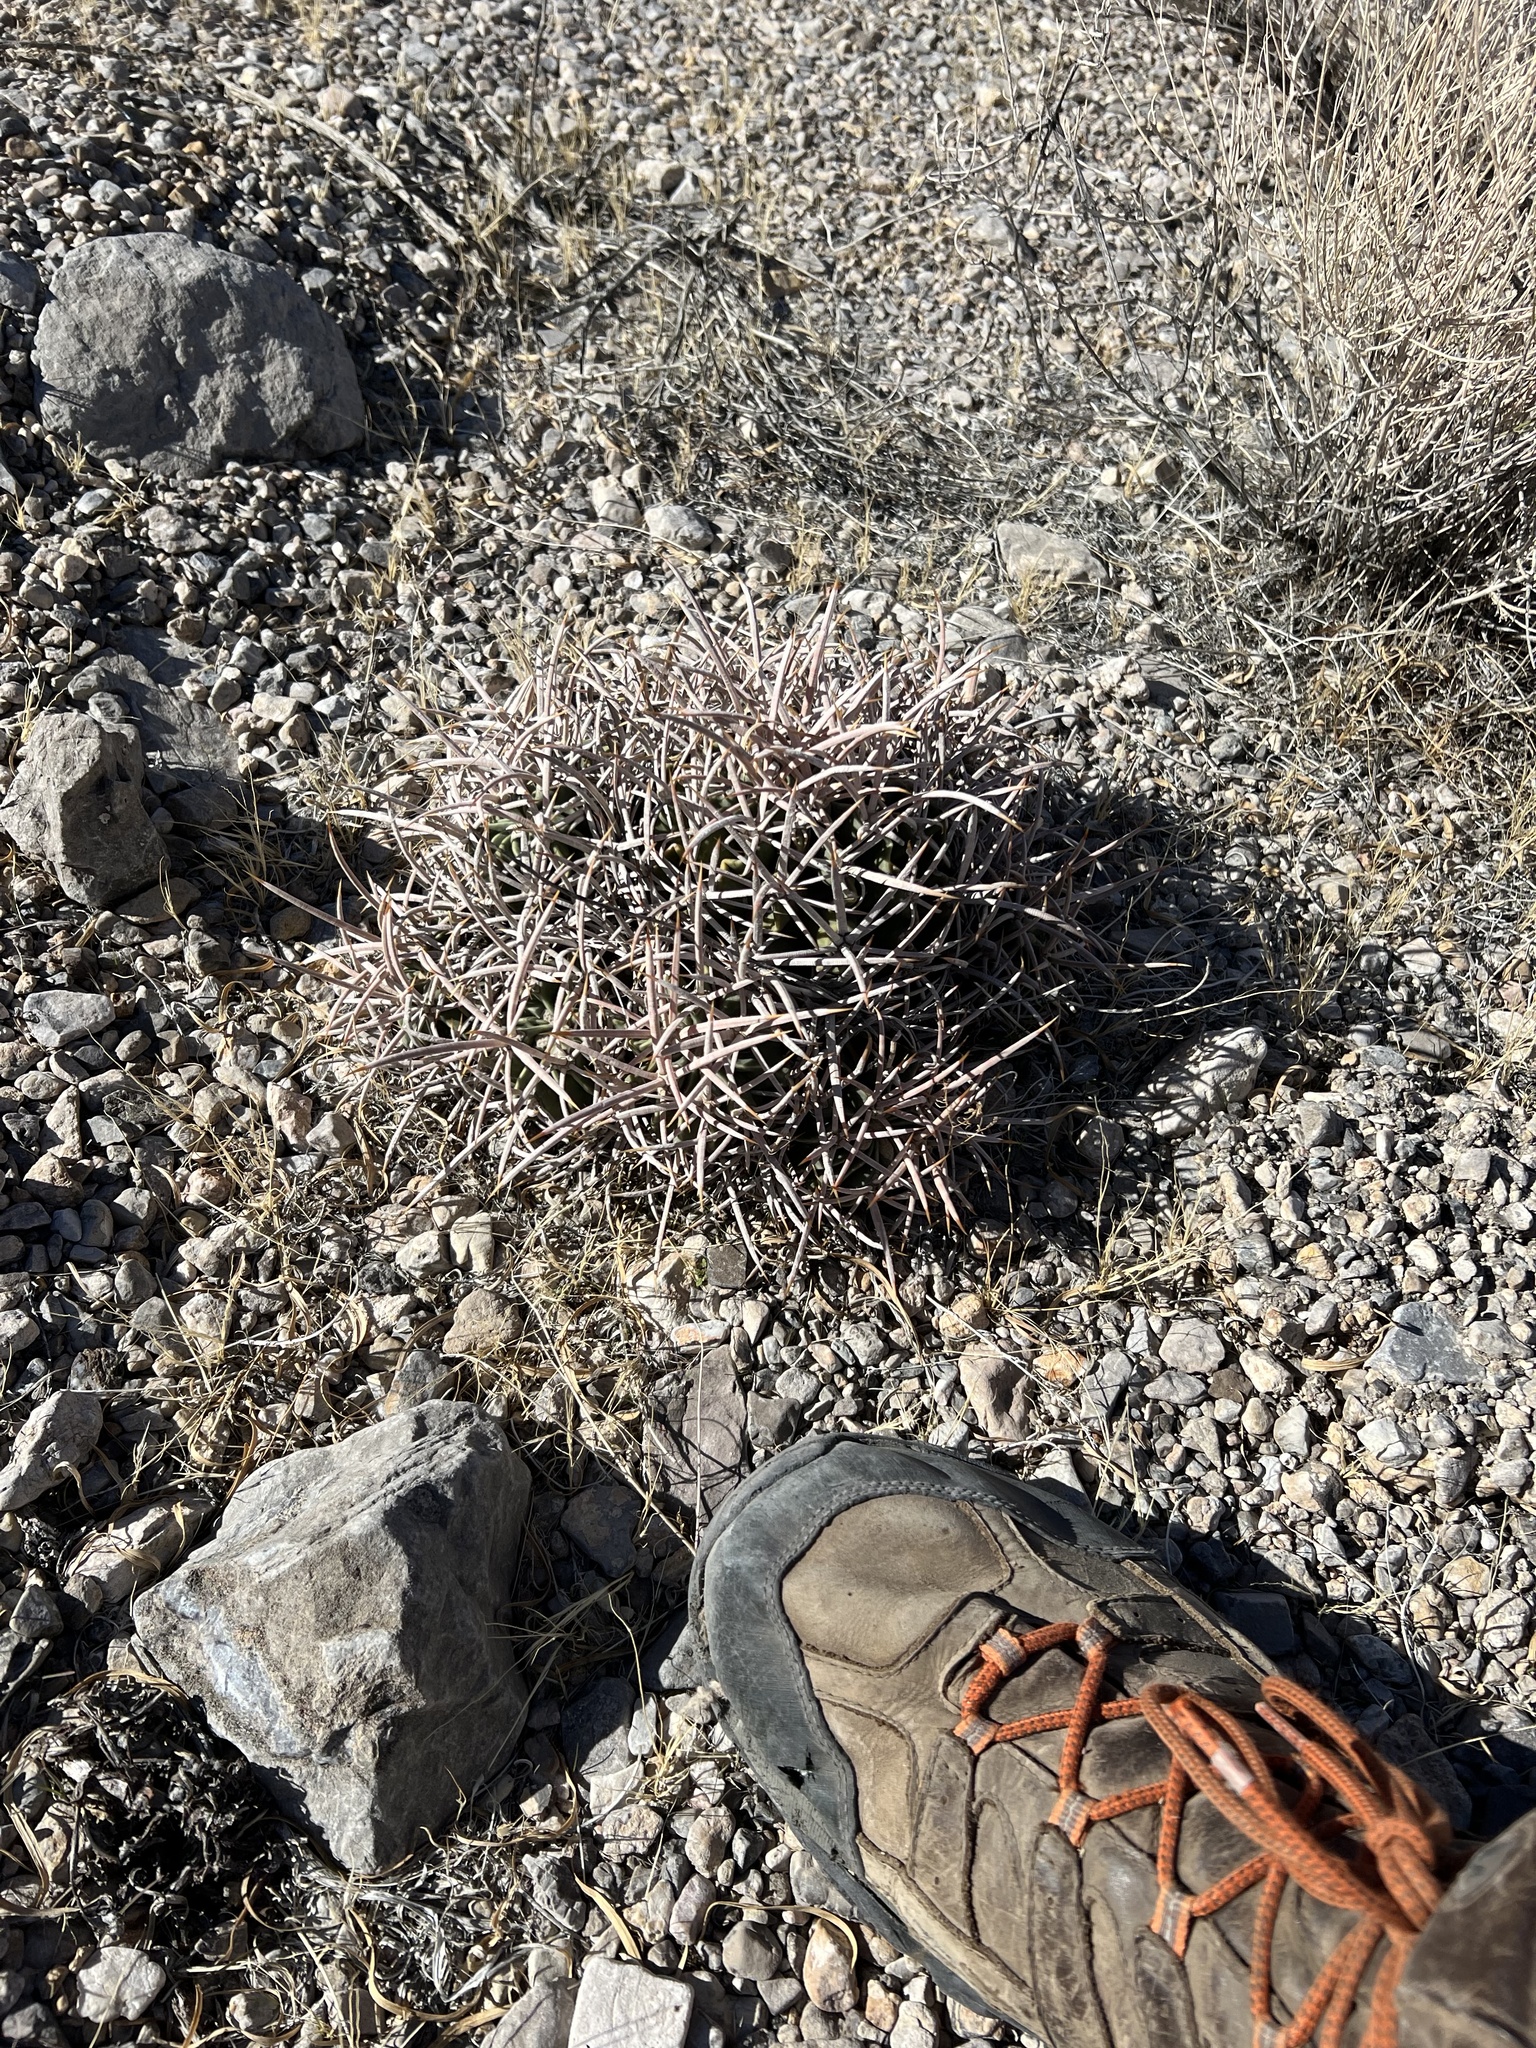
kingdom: Plantae
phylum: Tracheophyta
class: Magnoliopsida
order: Caryophyllales
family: Cactaceae
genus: Echinocactus
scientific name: Echinocactus polycephalus
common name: Cottontop cactus
